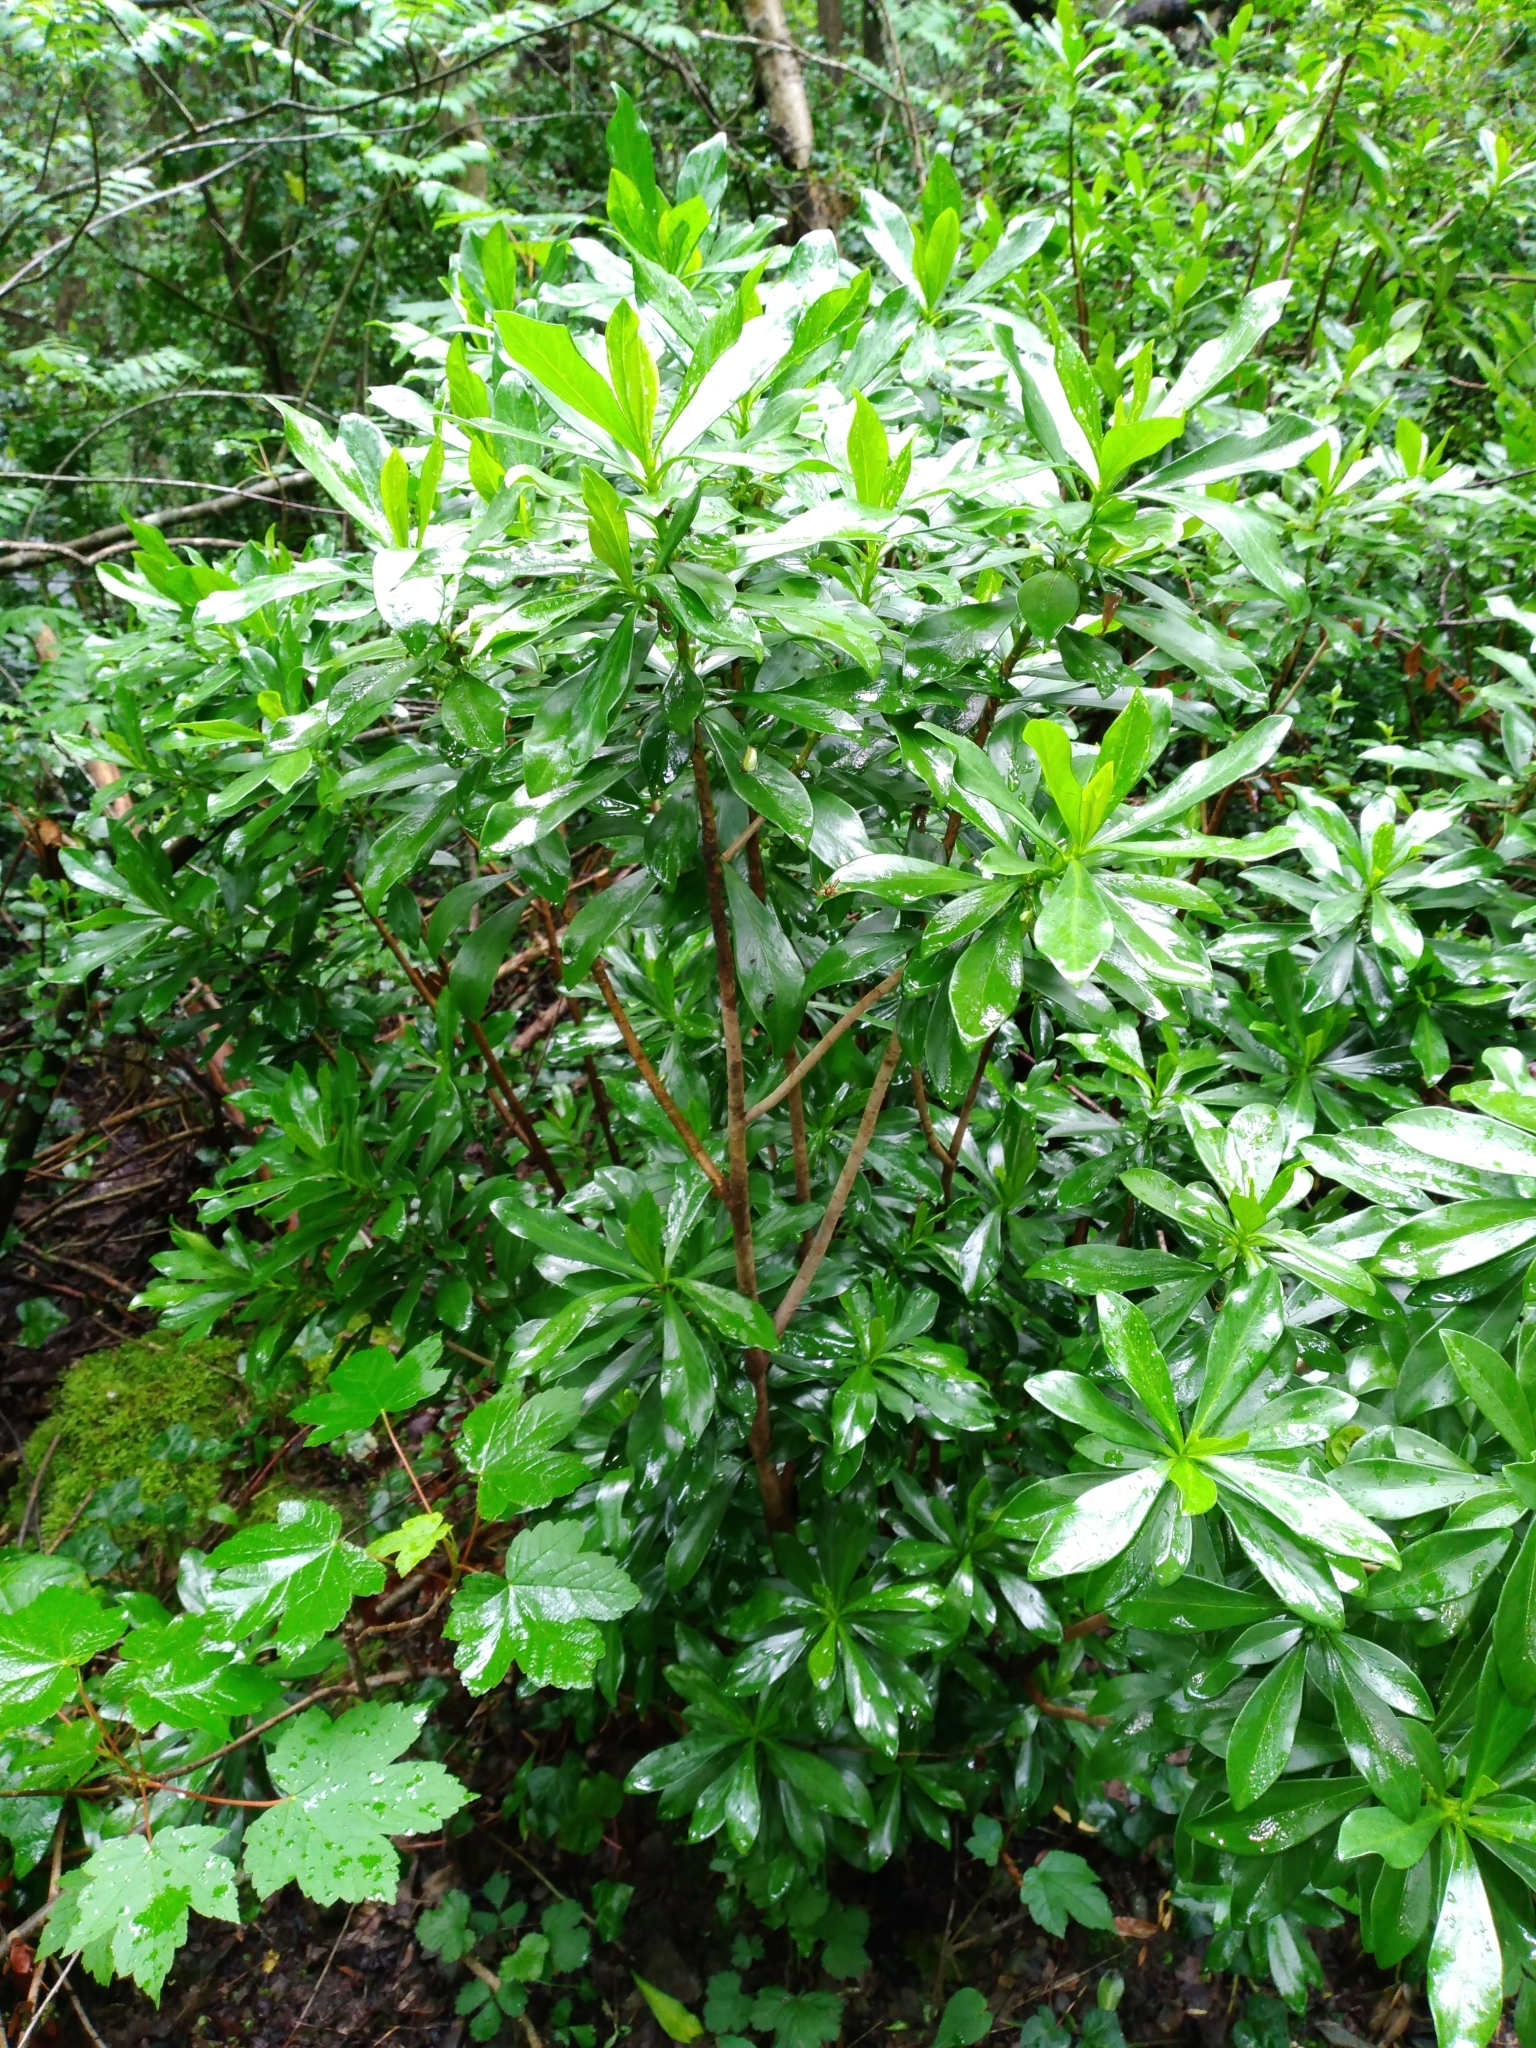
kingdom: Plantae
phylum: Tracheophyta
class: Magnoliopsida
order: Malvales
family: Thymelaeaceae
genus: Daphne
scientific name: Daphne laureola
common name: Spurge-laurel
